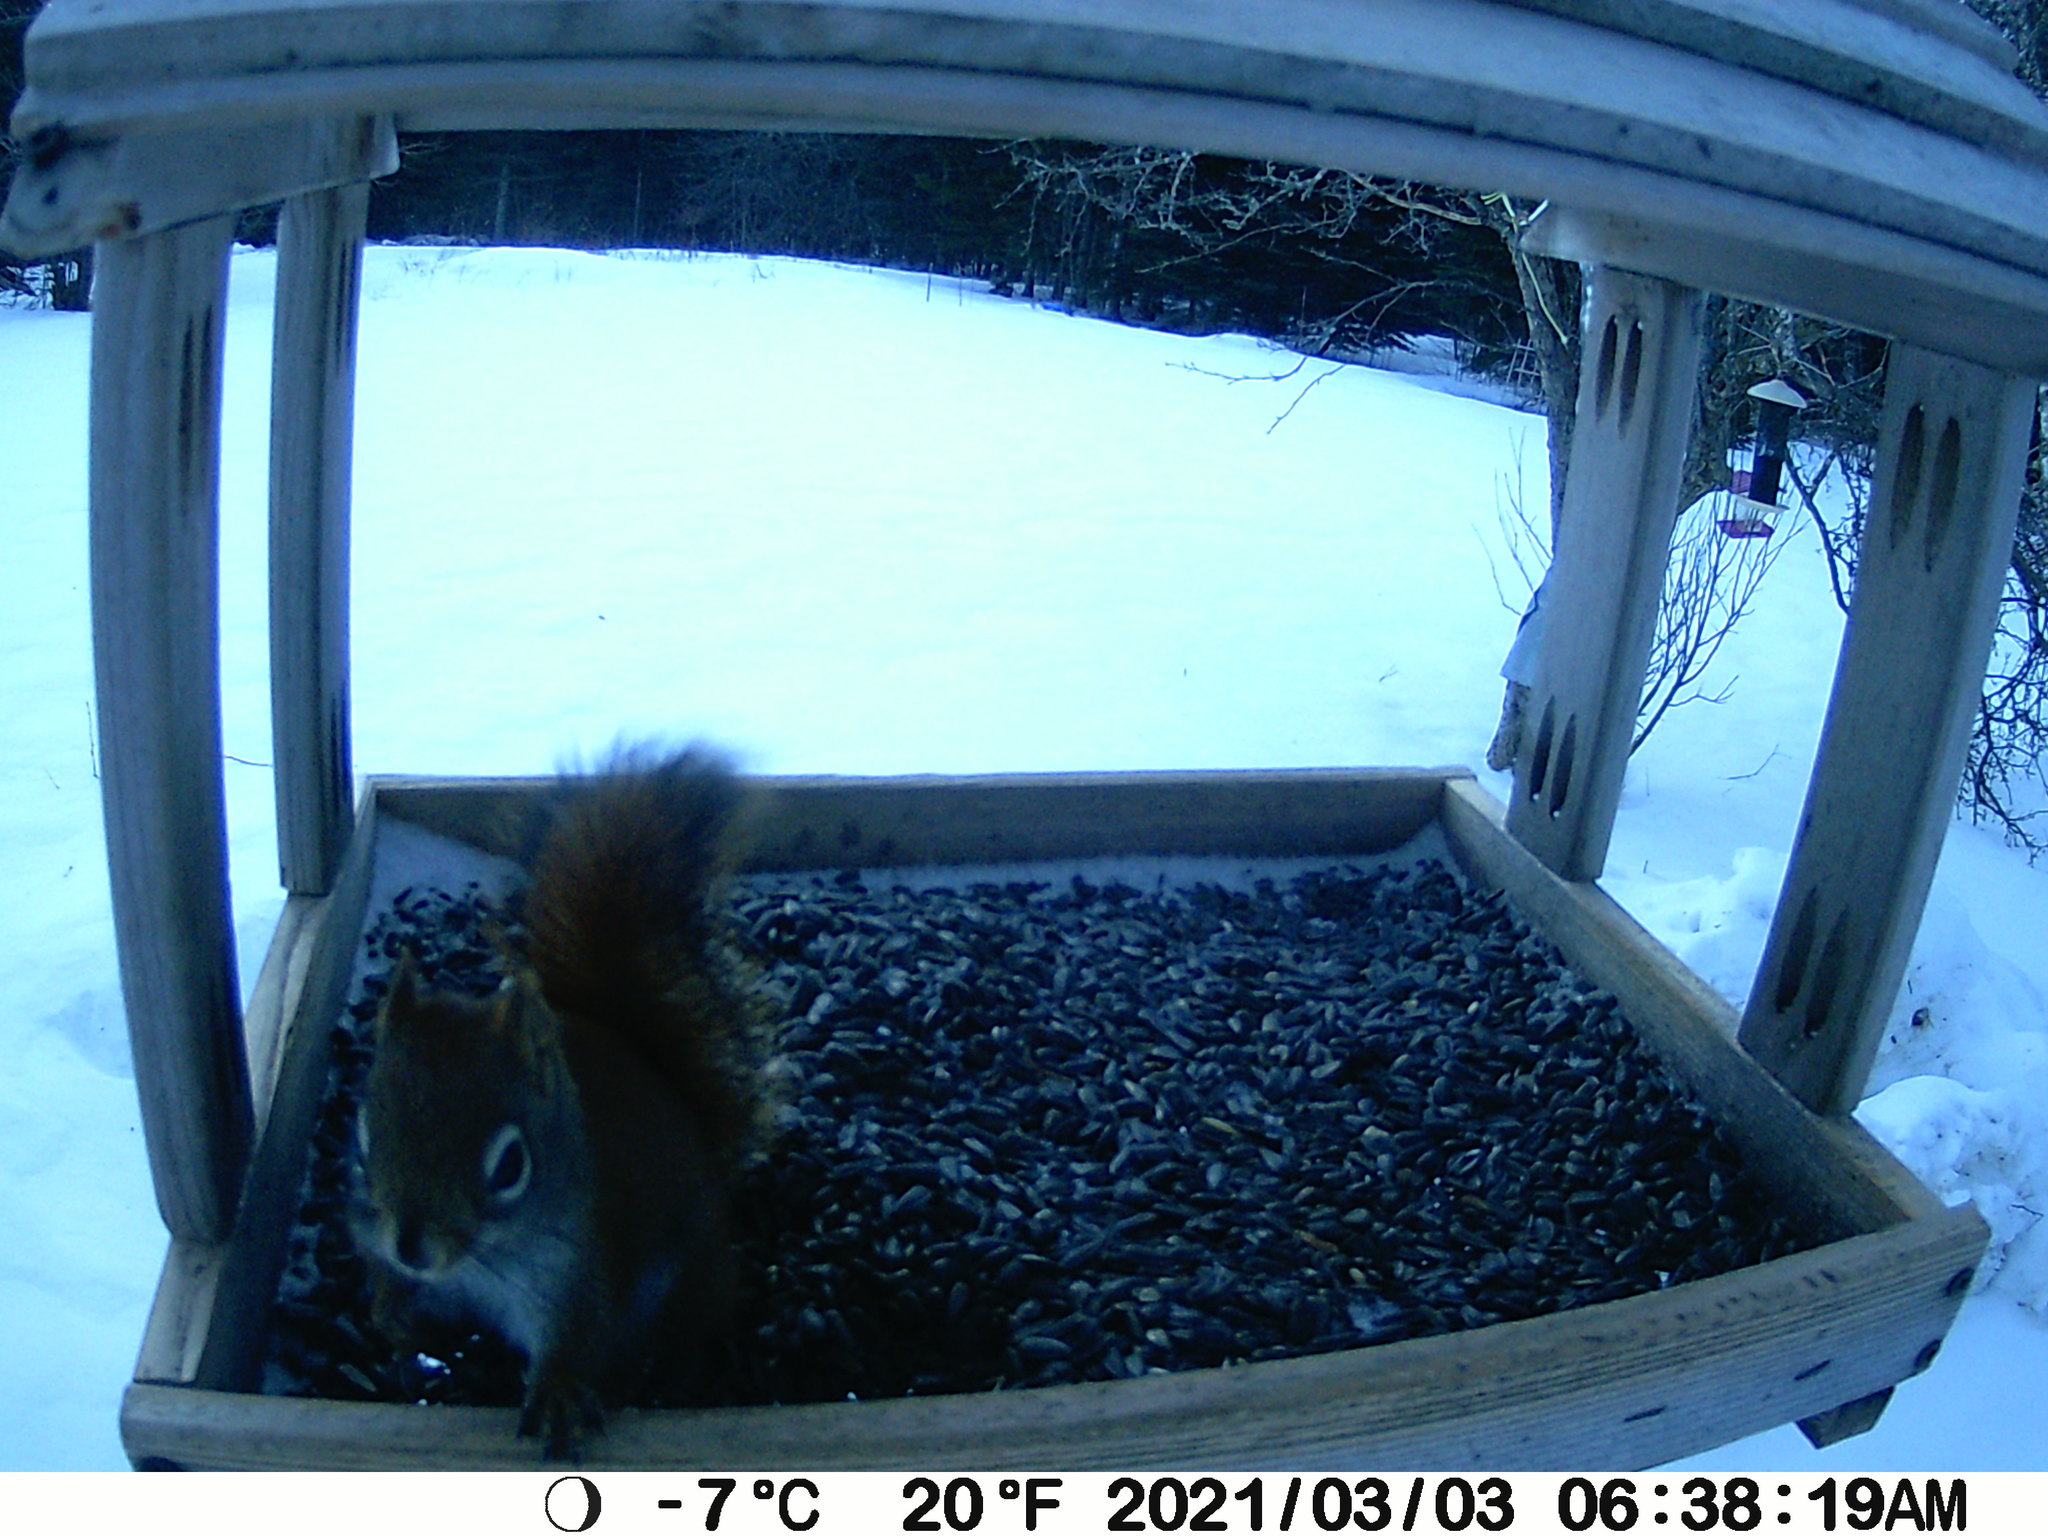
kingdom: Animalia
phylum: Chordata
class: Mammalia
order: Rodentia
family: Sciuridae
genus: Tamiasciurus
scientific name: Tamiasciurus hudsonicus
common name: Red squirrel
